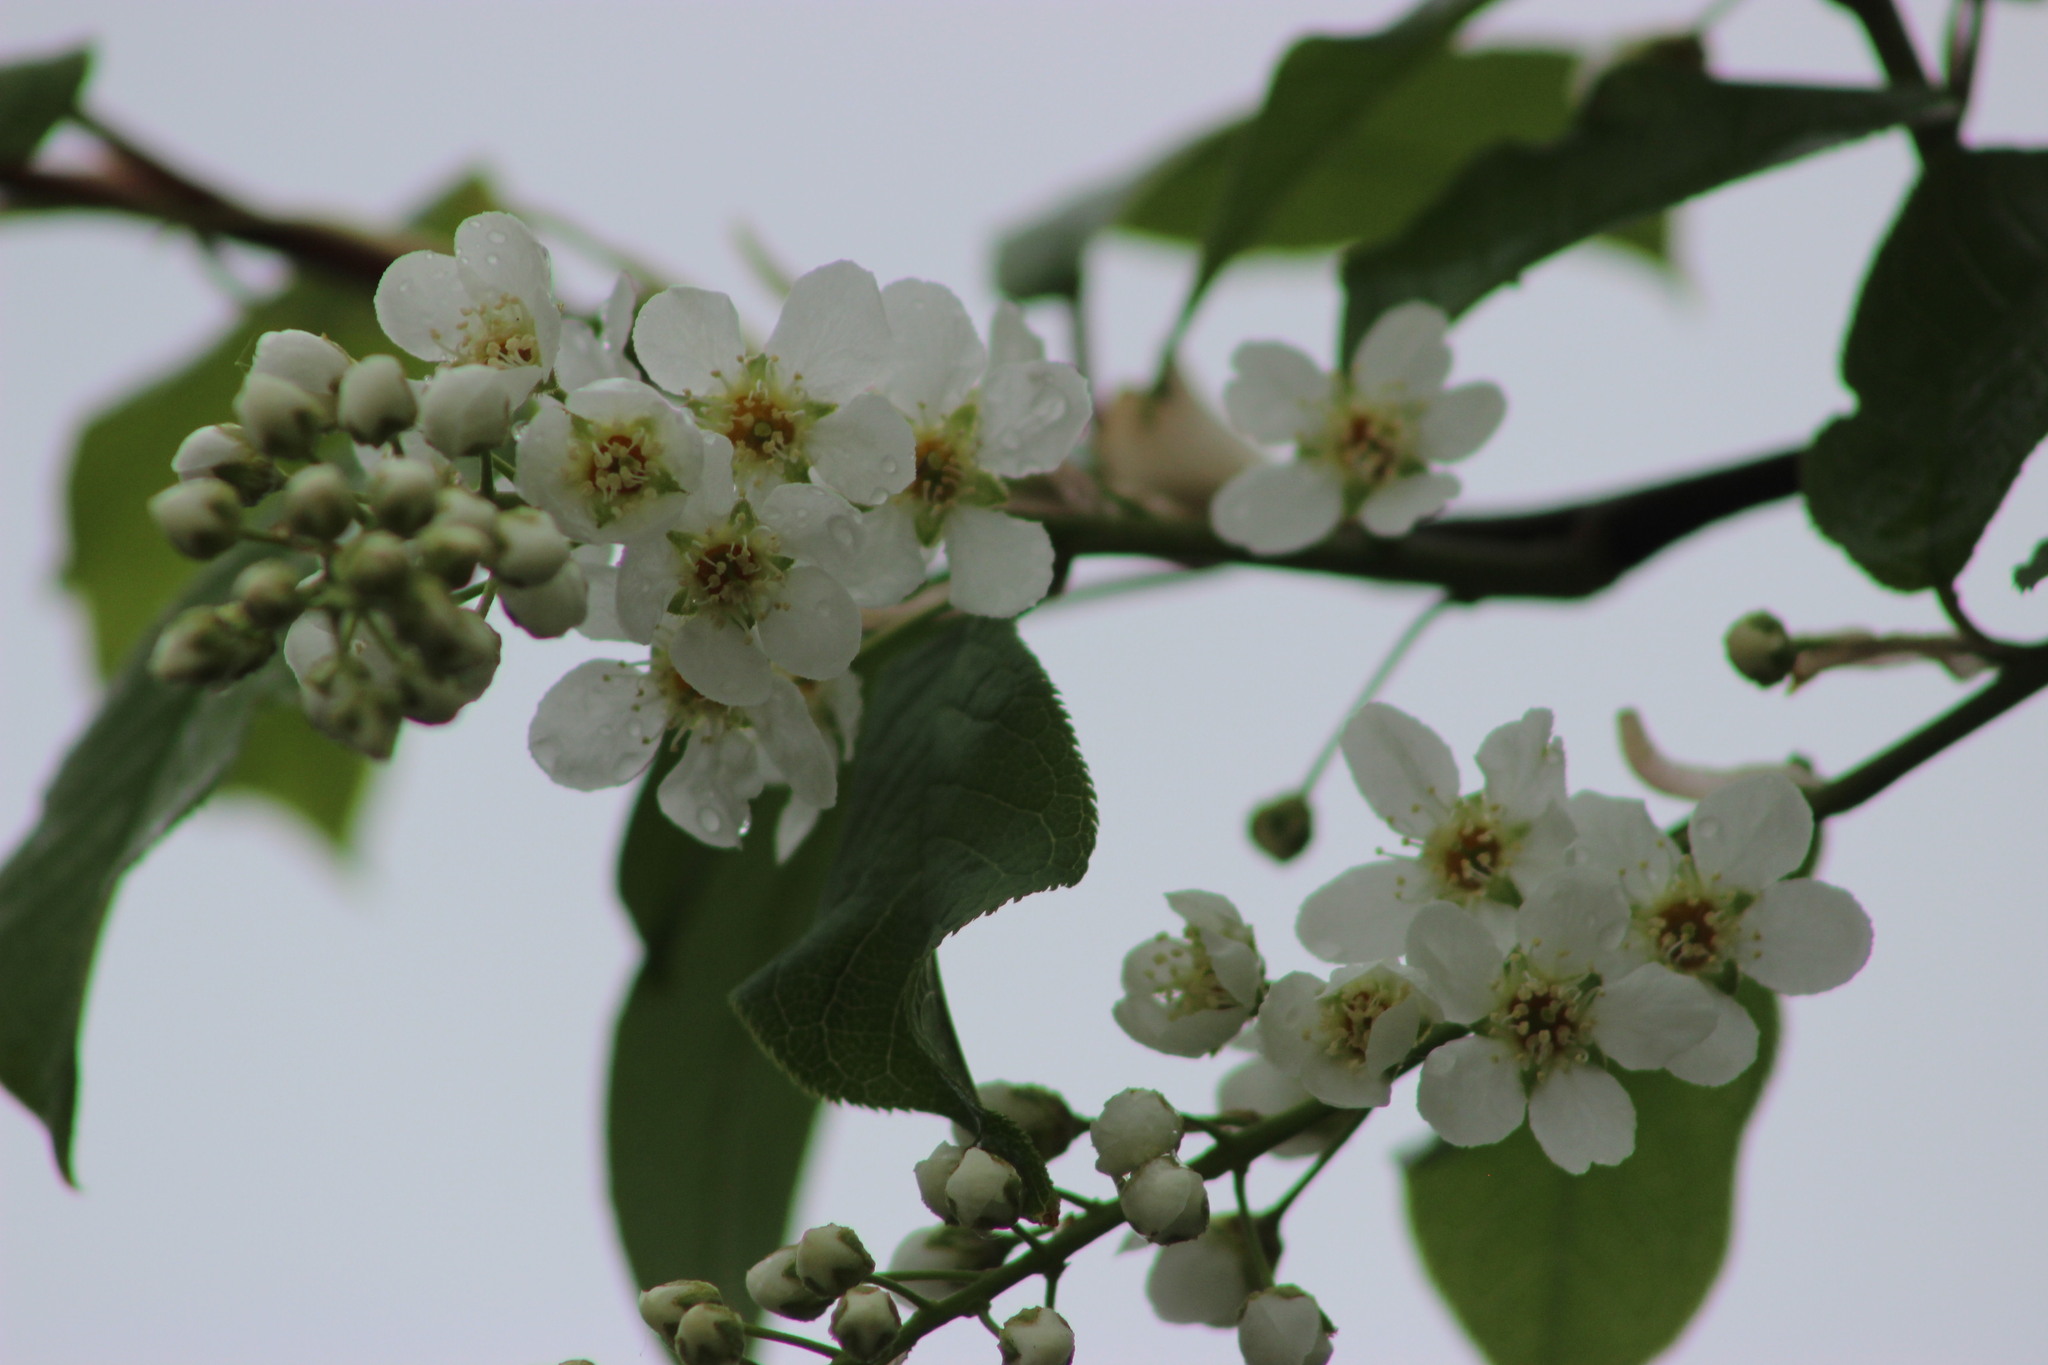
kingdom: Plantae
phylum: Tracheophyta
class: Magnoliopsida
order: Rosales
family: Rosaceae
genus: Prunus
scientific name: Prunus padus
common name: Bird cherry
